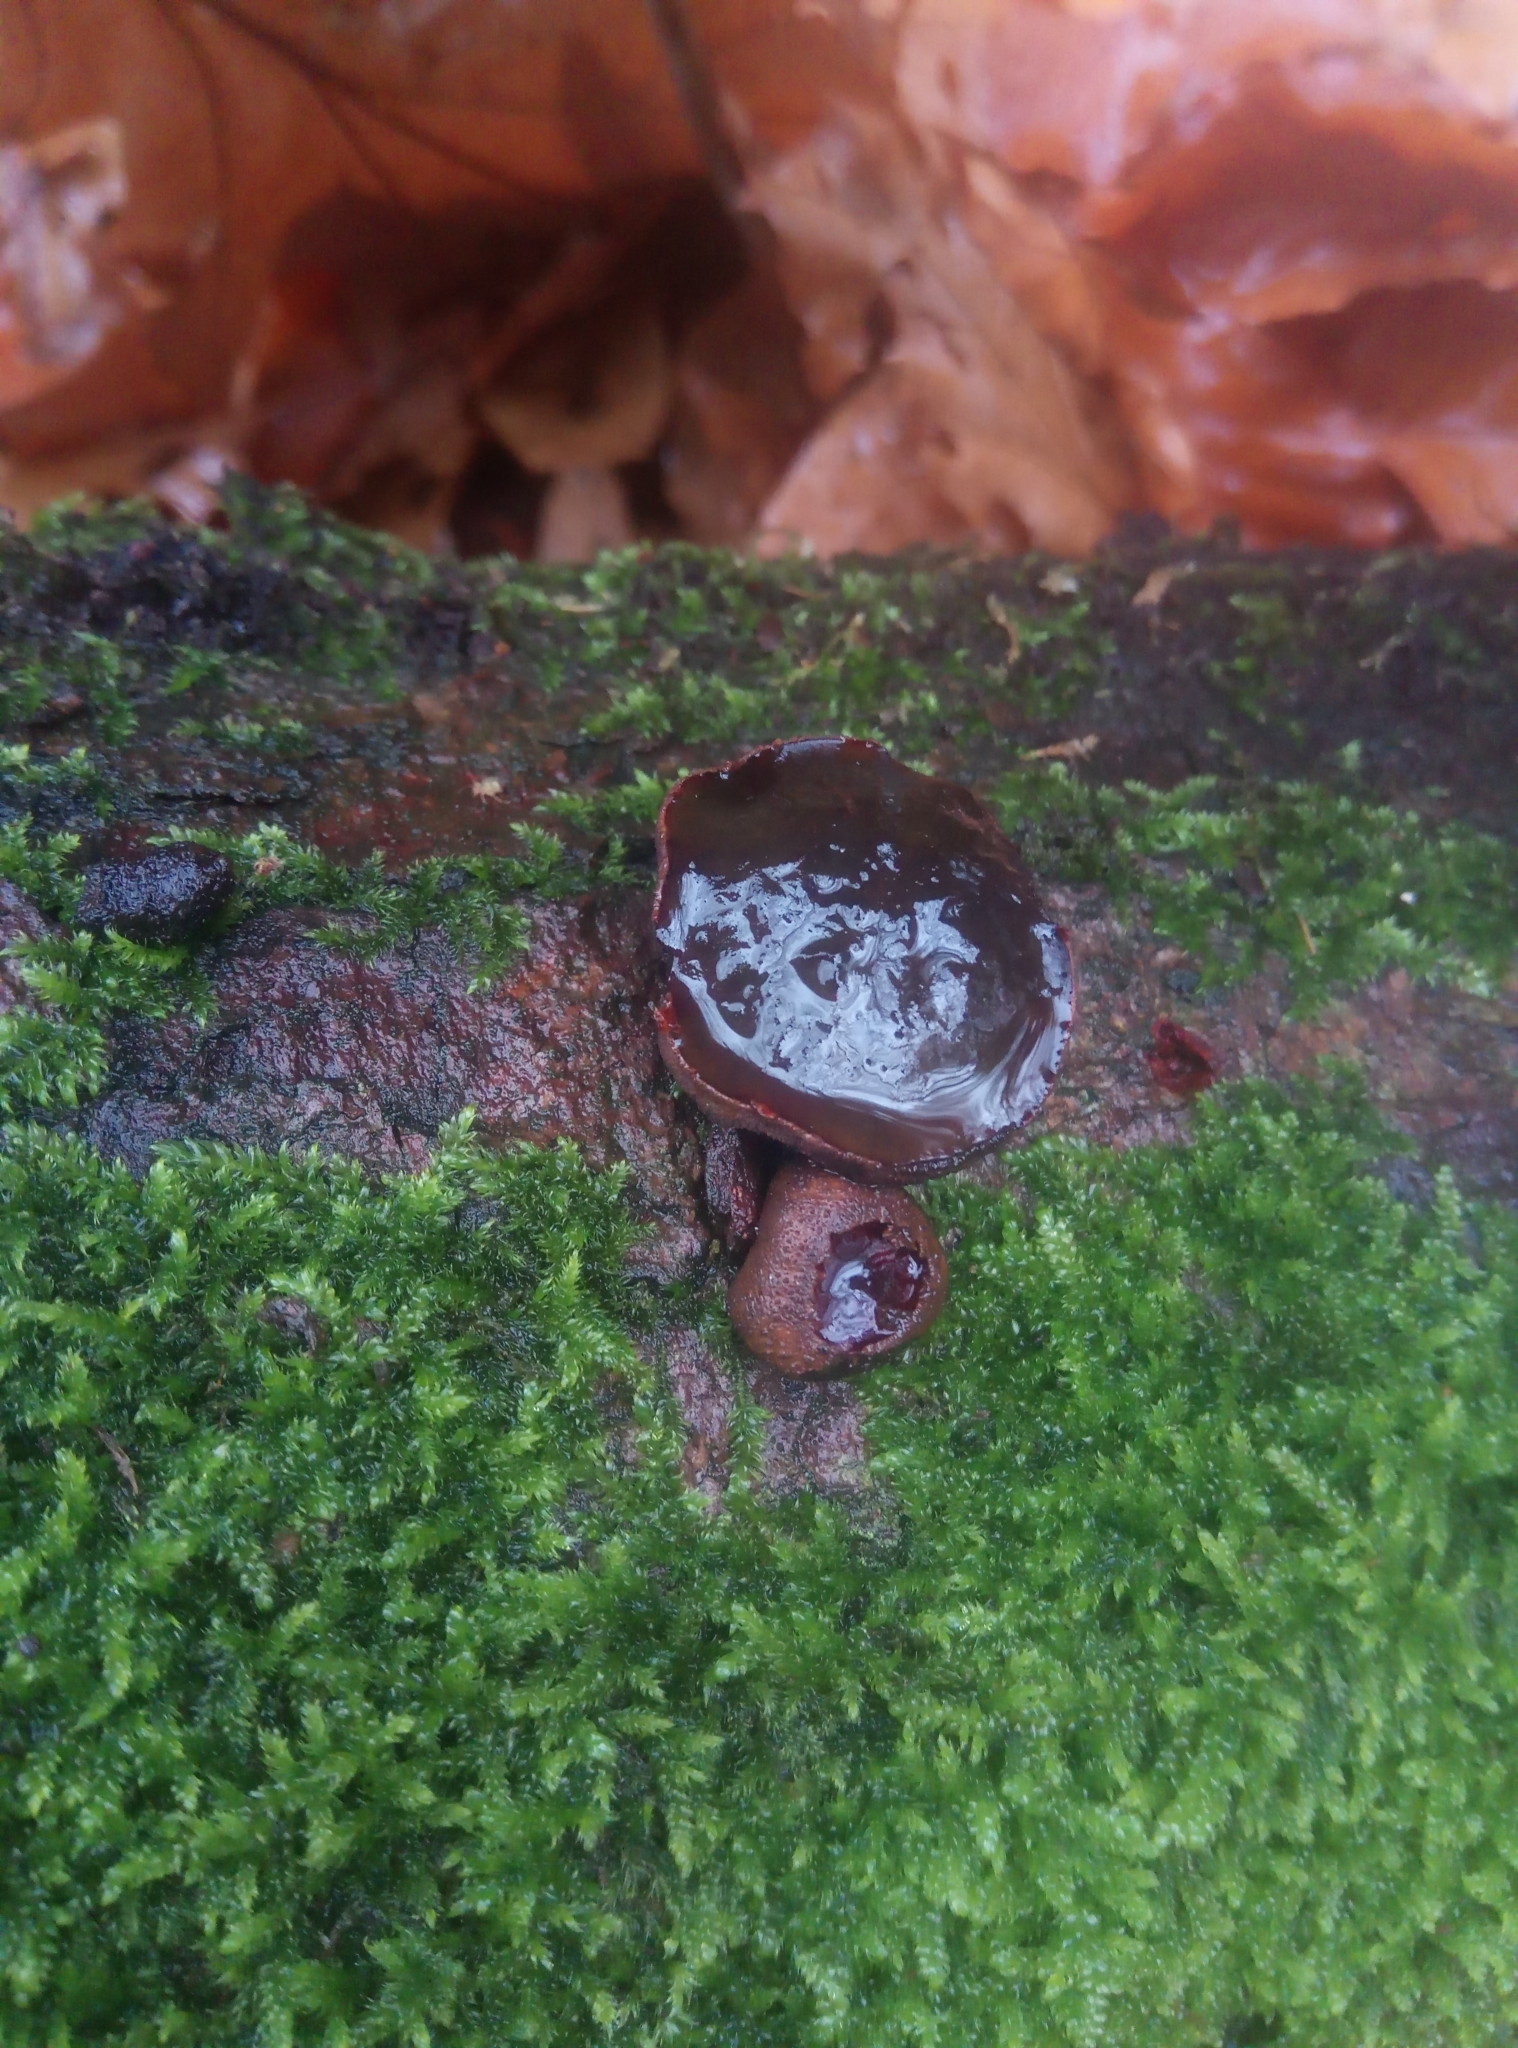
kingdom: Fungi
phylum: Ascomycota
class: Leotiomycetes
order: Phacidiales
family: Phacidiaceae
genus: Bulgaria
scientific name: Bulgaria inquinans
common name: Black bulgar
